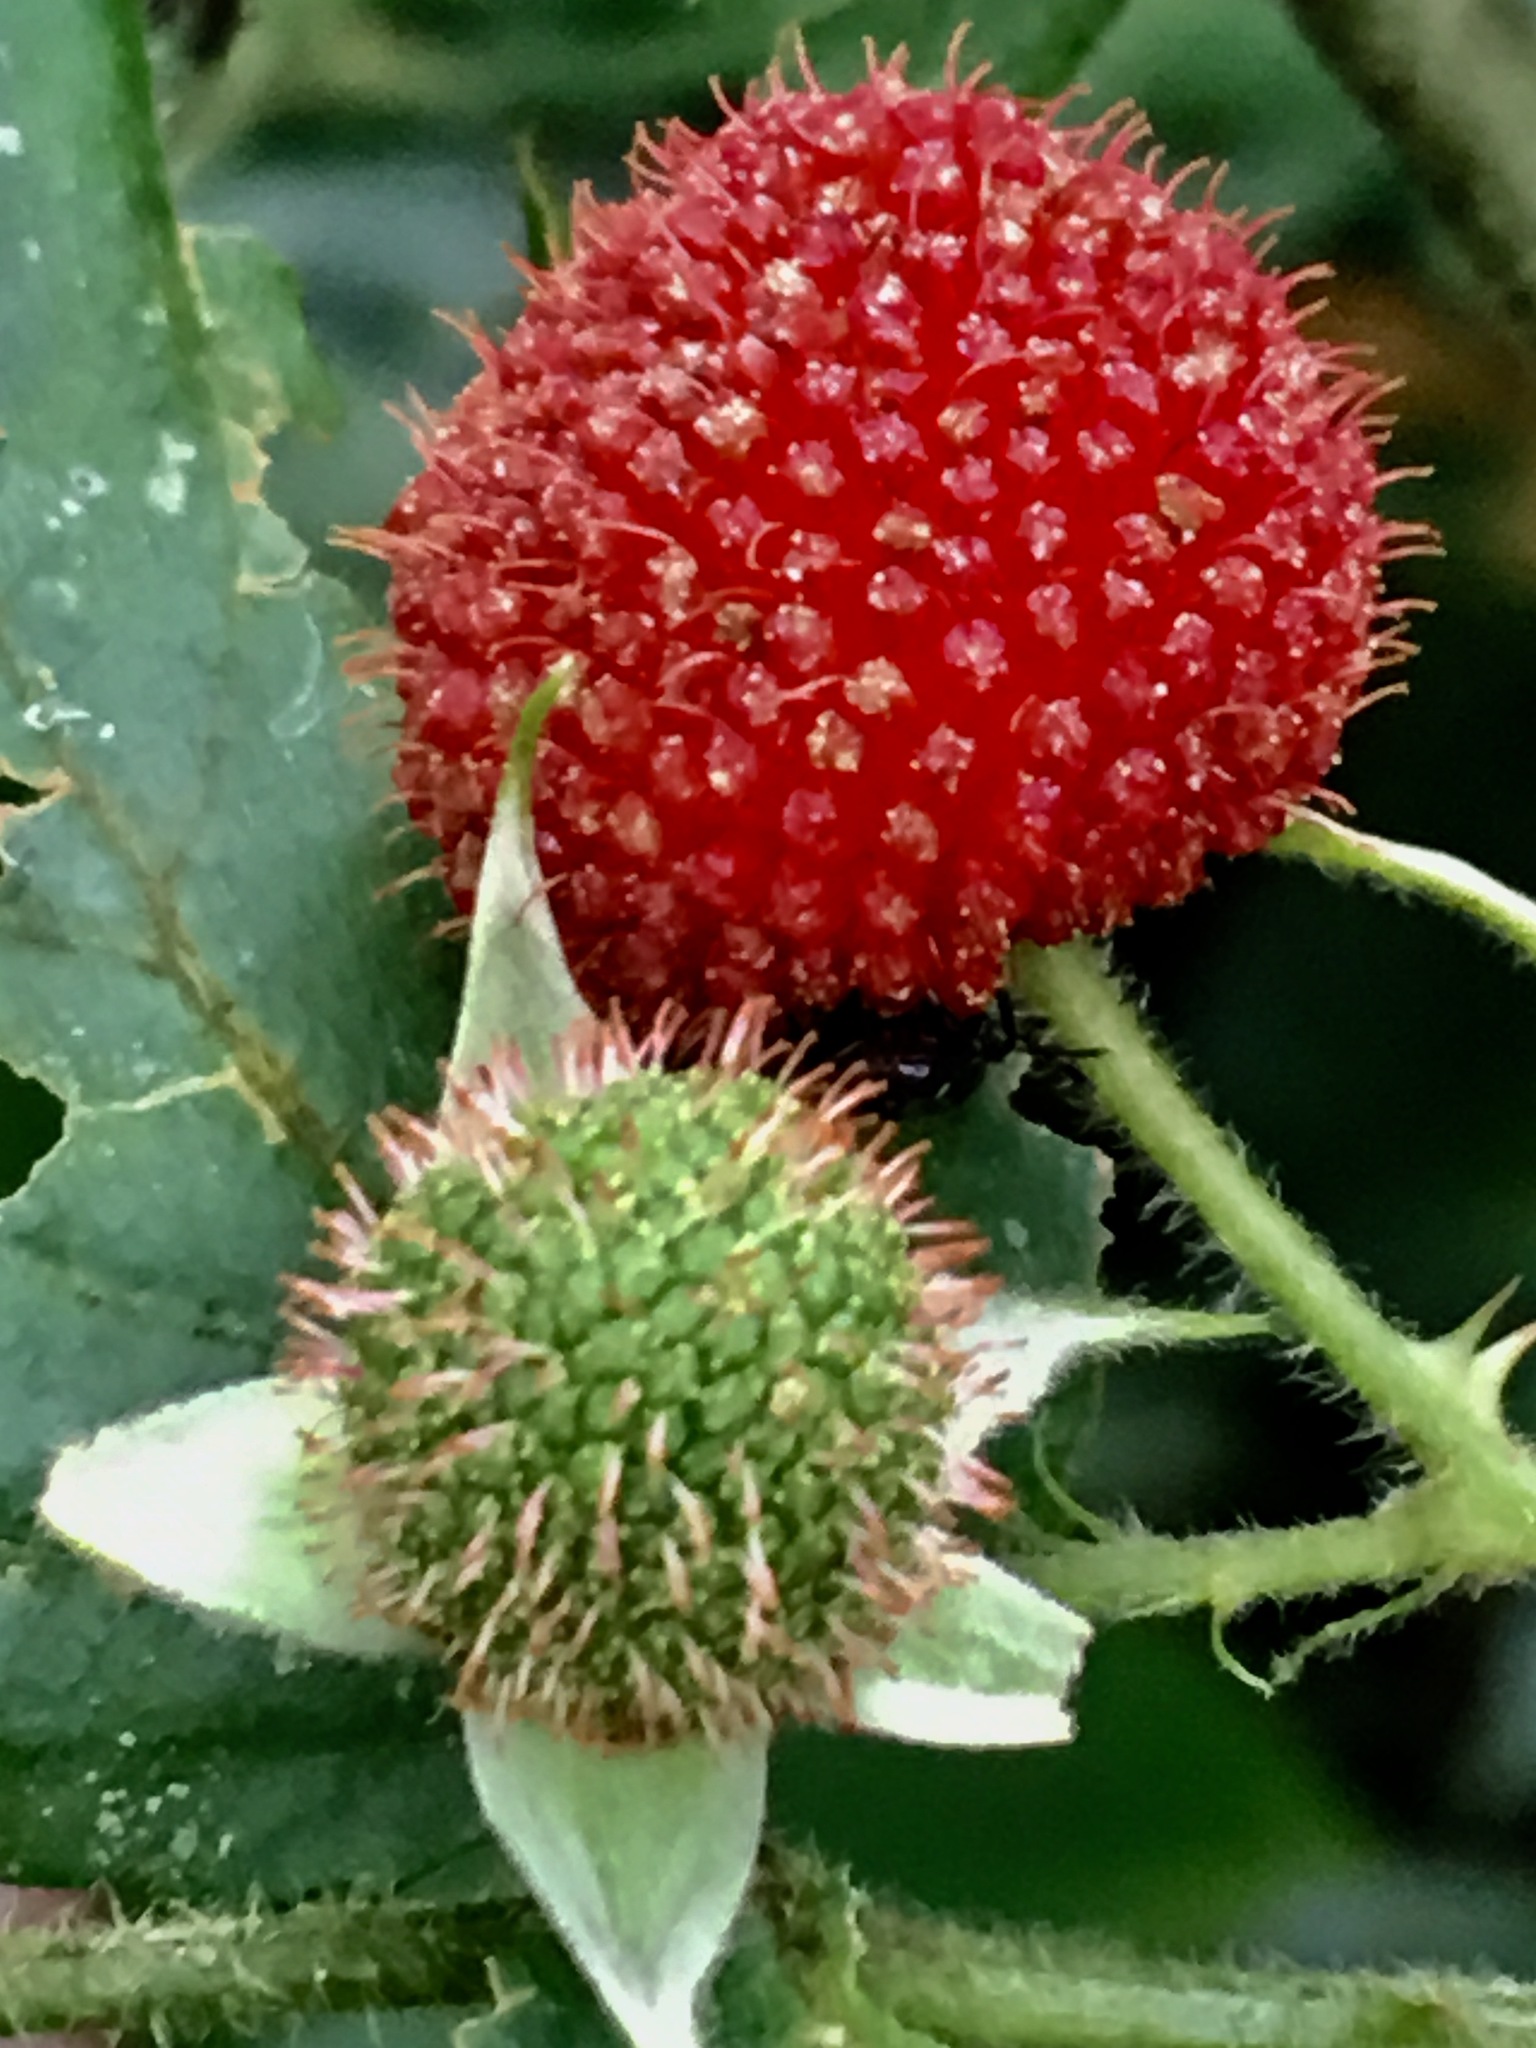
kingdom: Plantae
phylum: Tracheophyta
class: Magnoliopsida
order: Rosales
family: Rosaceae
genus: Rubus
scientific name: Rubus rosifolius
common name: Roseleaf raspberry
